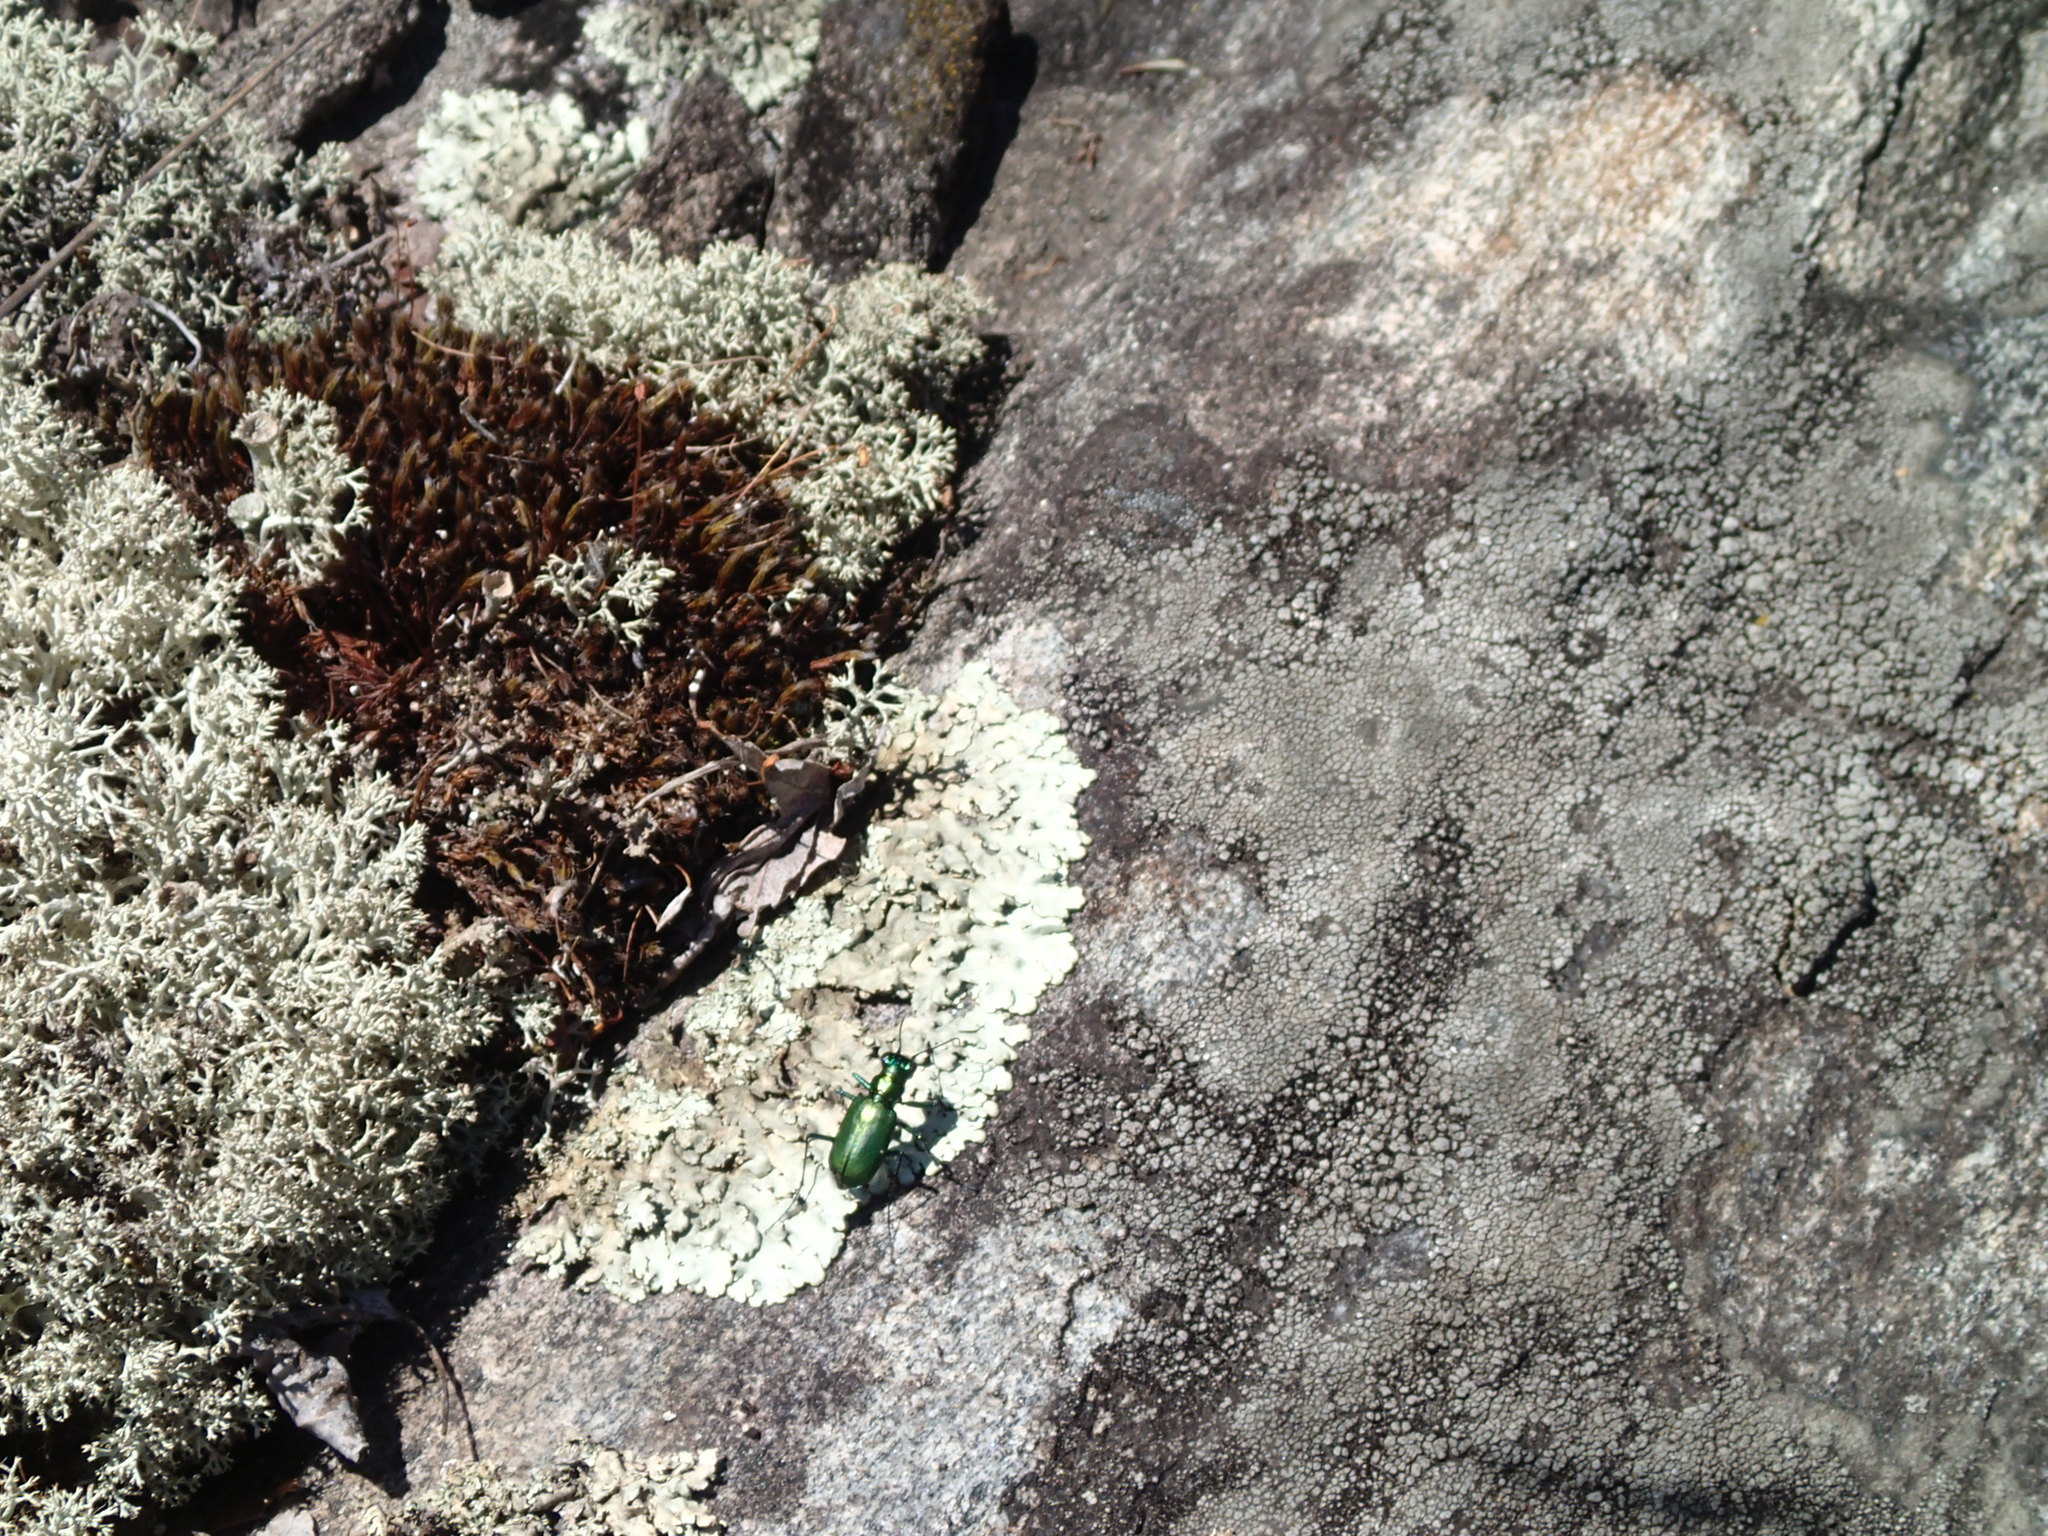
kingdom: Animalia
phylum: Arthropoda
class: Insecta
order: Coleoptera
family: Carabidae
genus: Cicindela
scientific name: Cicindela denikei
